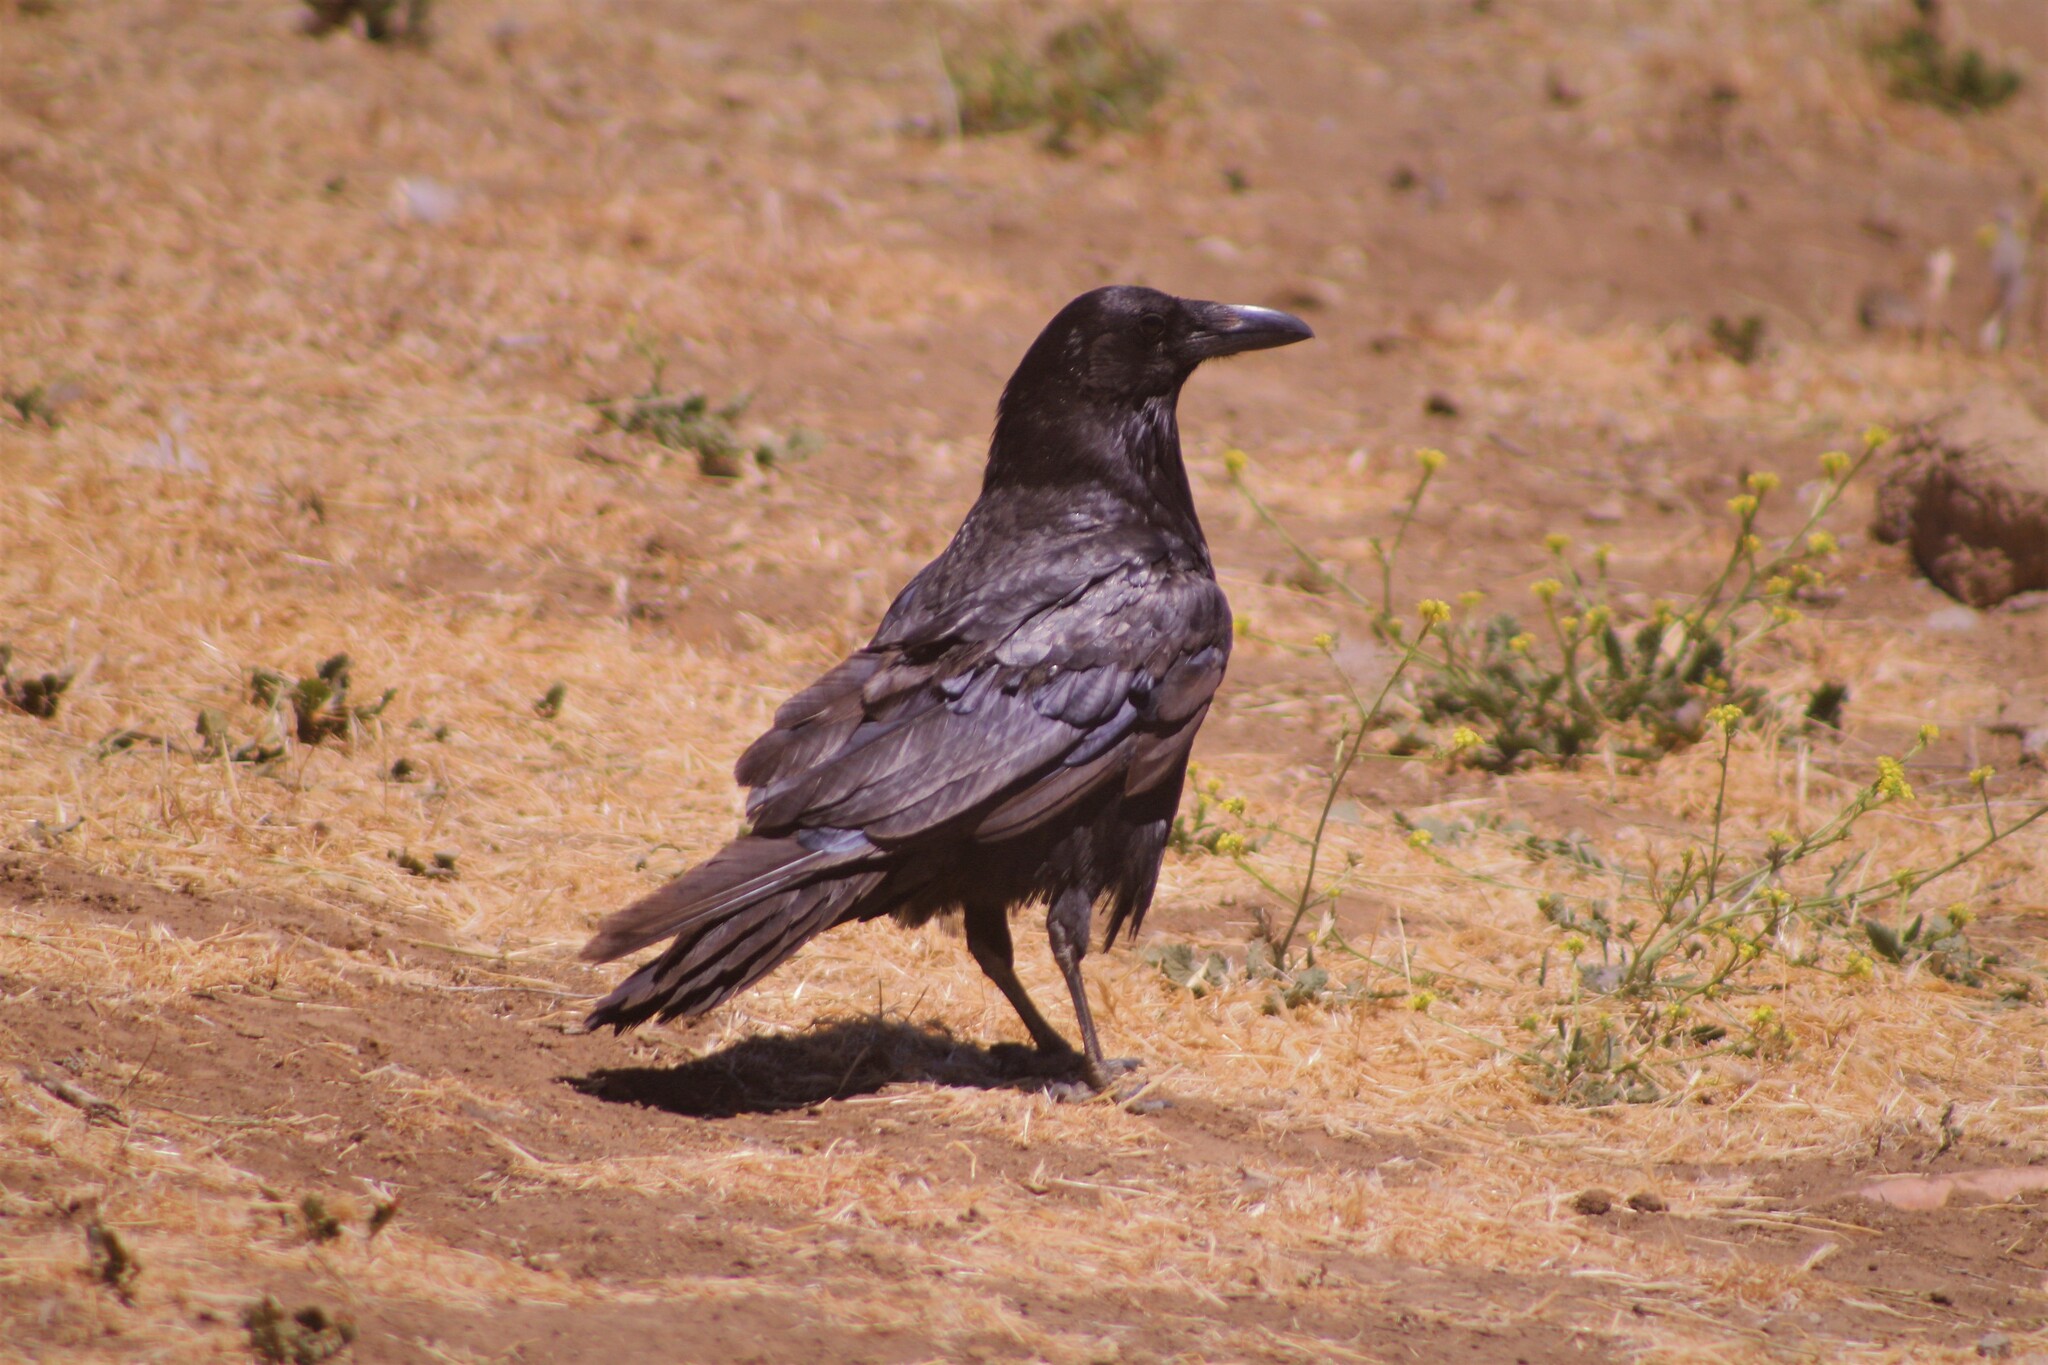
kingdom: Animalia
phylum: Chordata
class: Aves
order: Passeriformes
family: Corvidae
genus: Corvus
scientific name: Corvus corax
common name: Common raven
